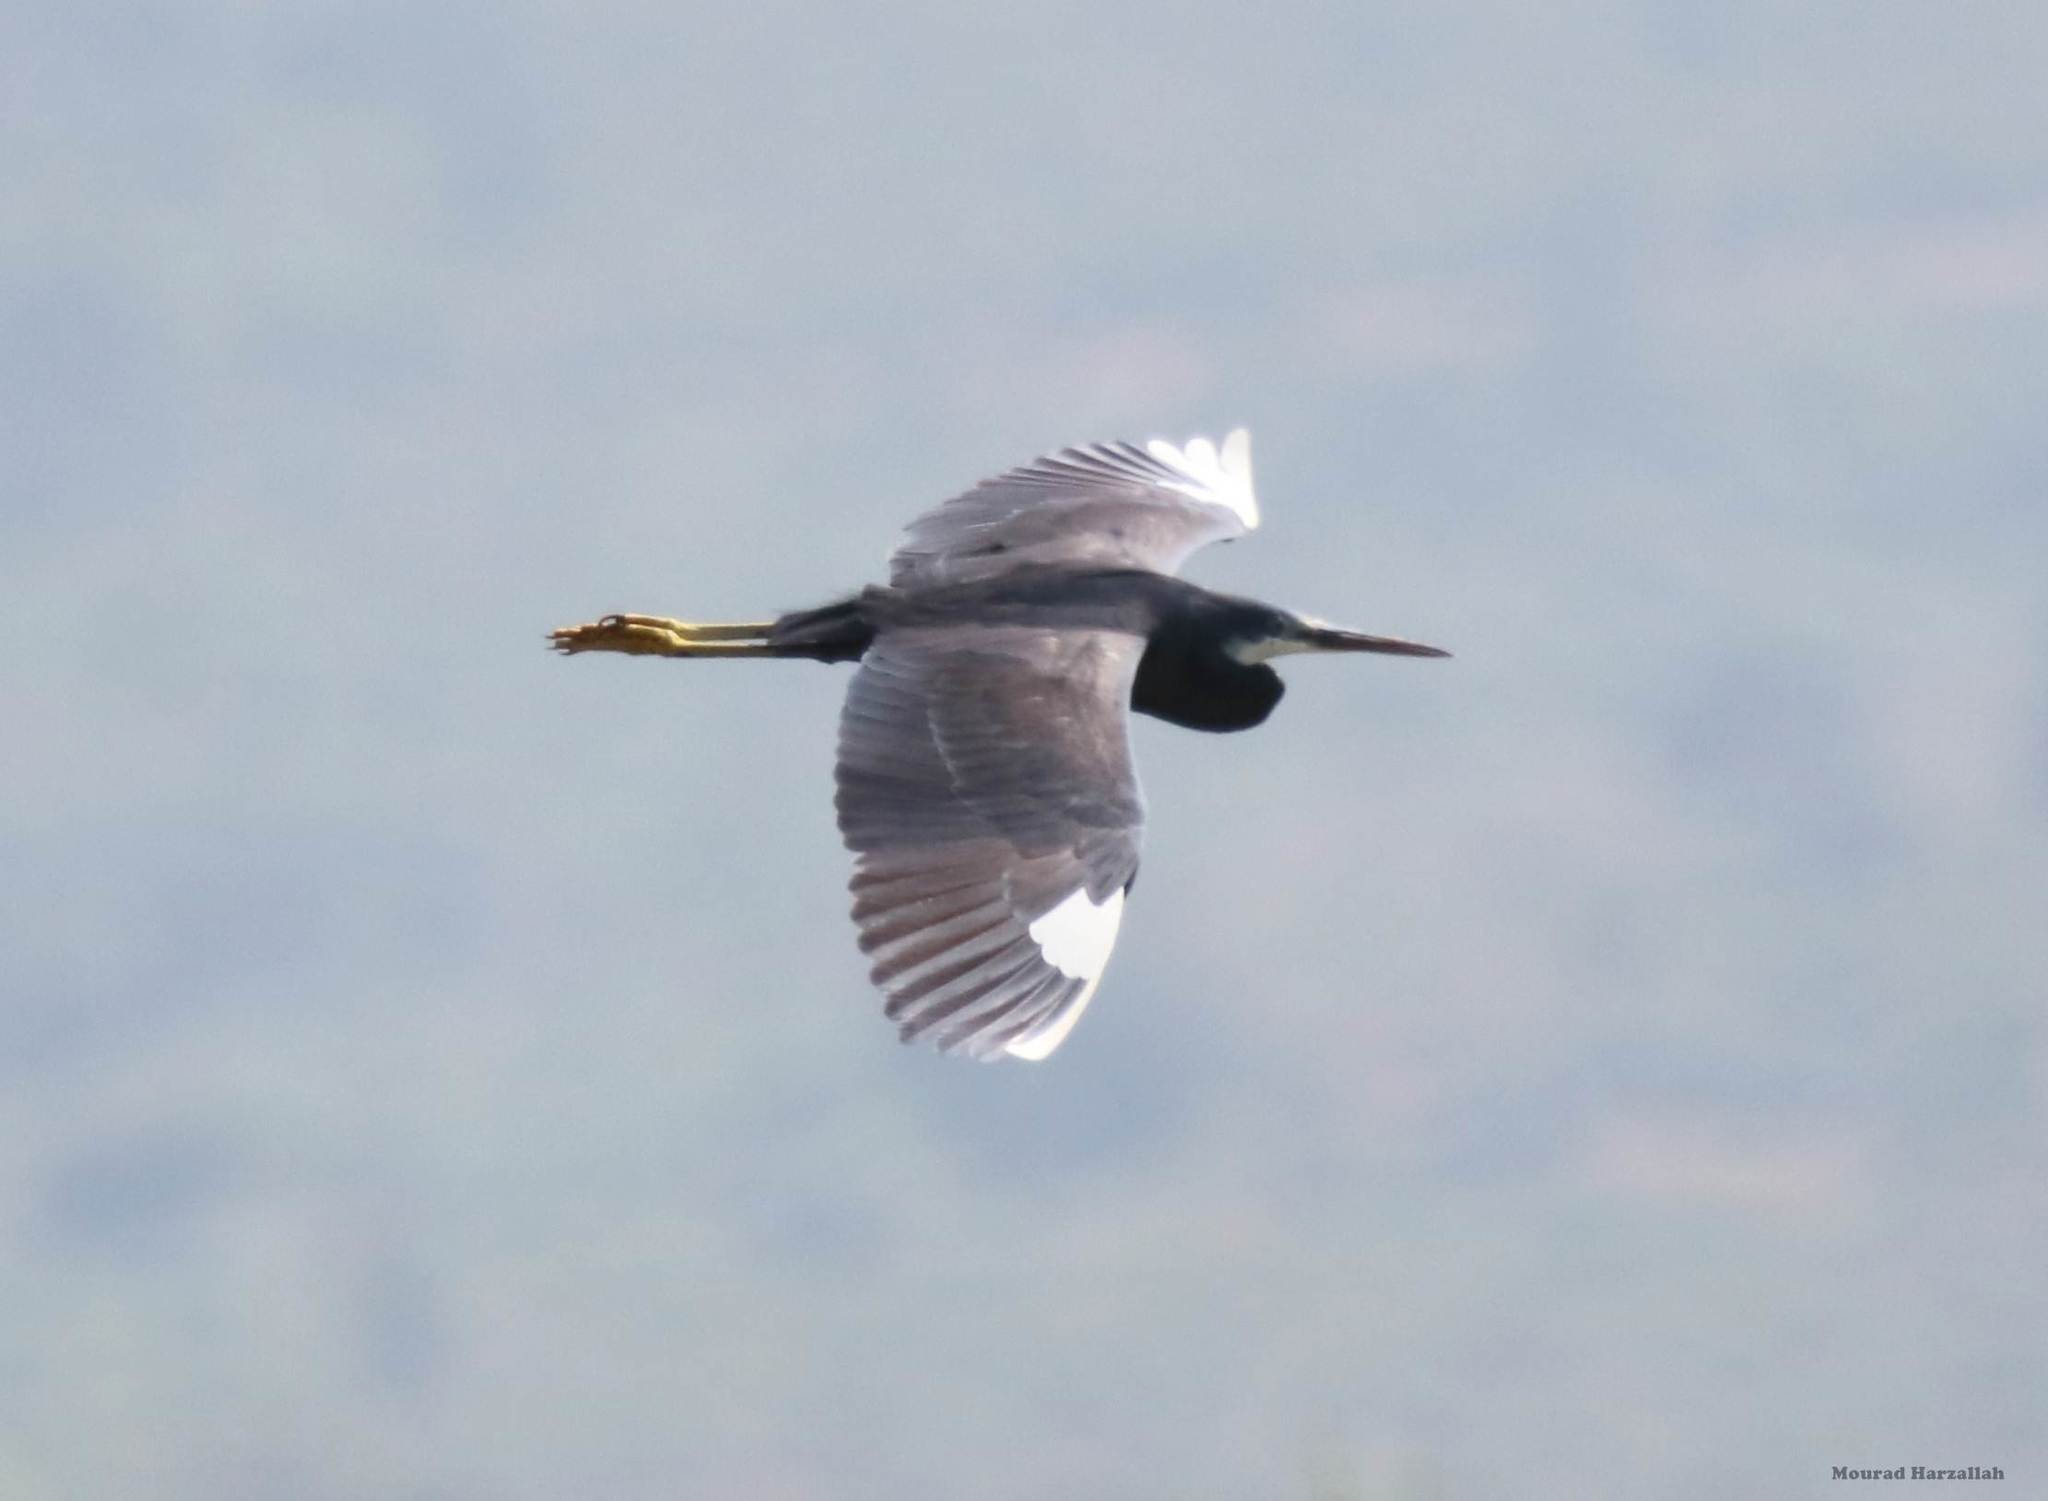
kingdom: Animalia
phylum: Chordata
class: Aves
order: Pelecaniformes
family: Ardeidae
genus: Egretta
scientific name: Egretta gularis
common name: Western reef-heron
